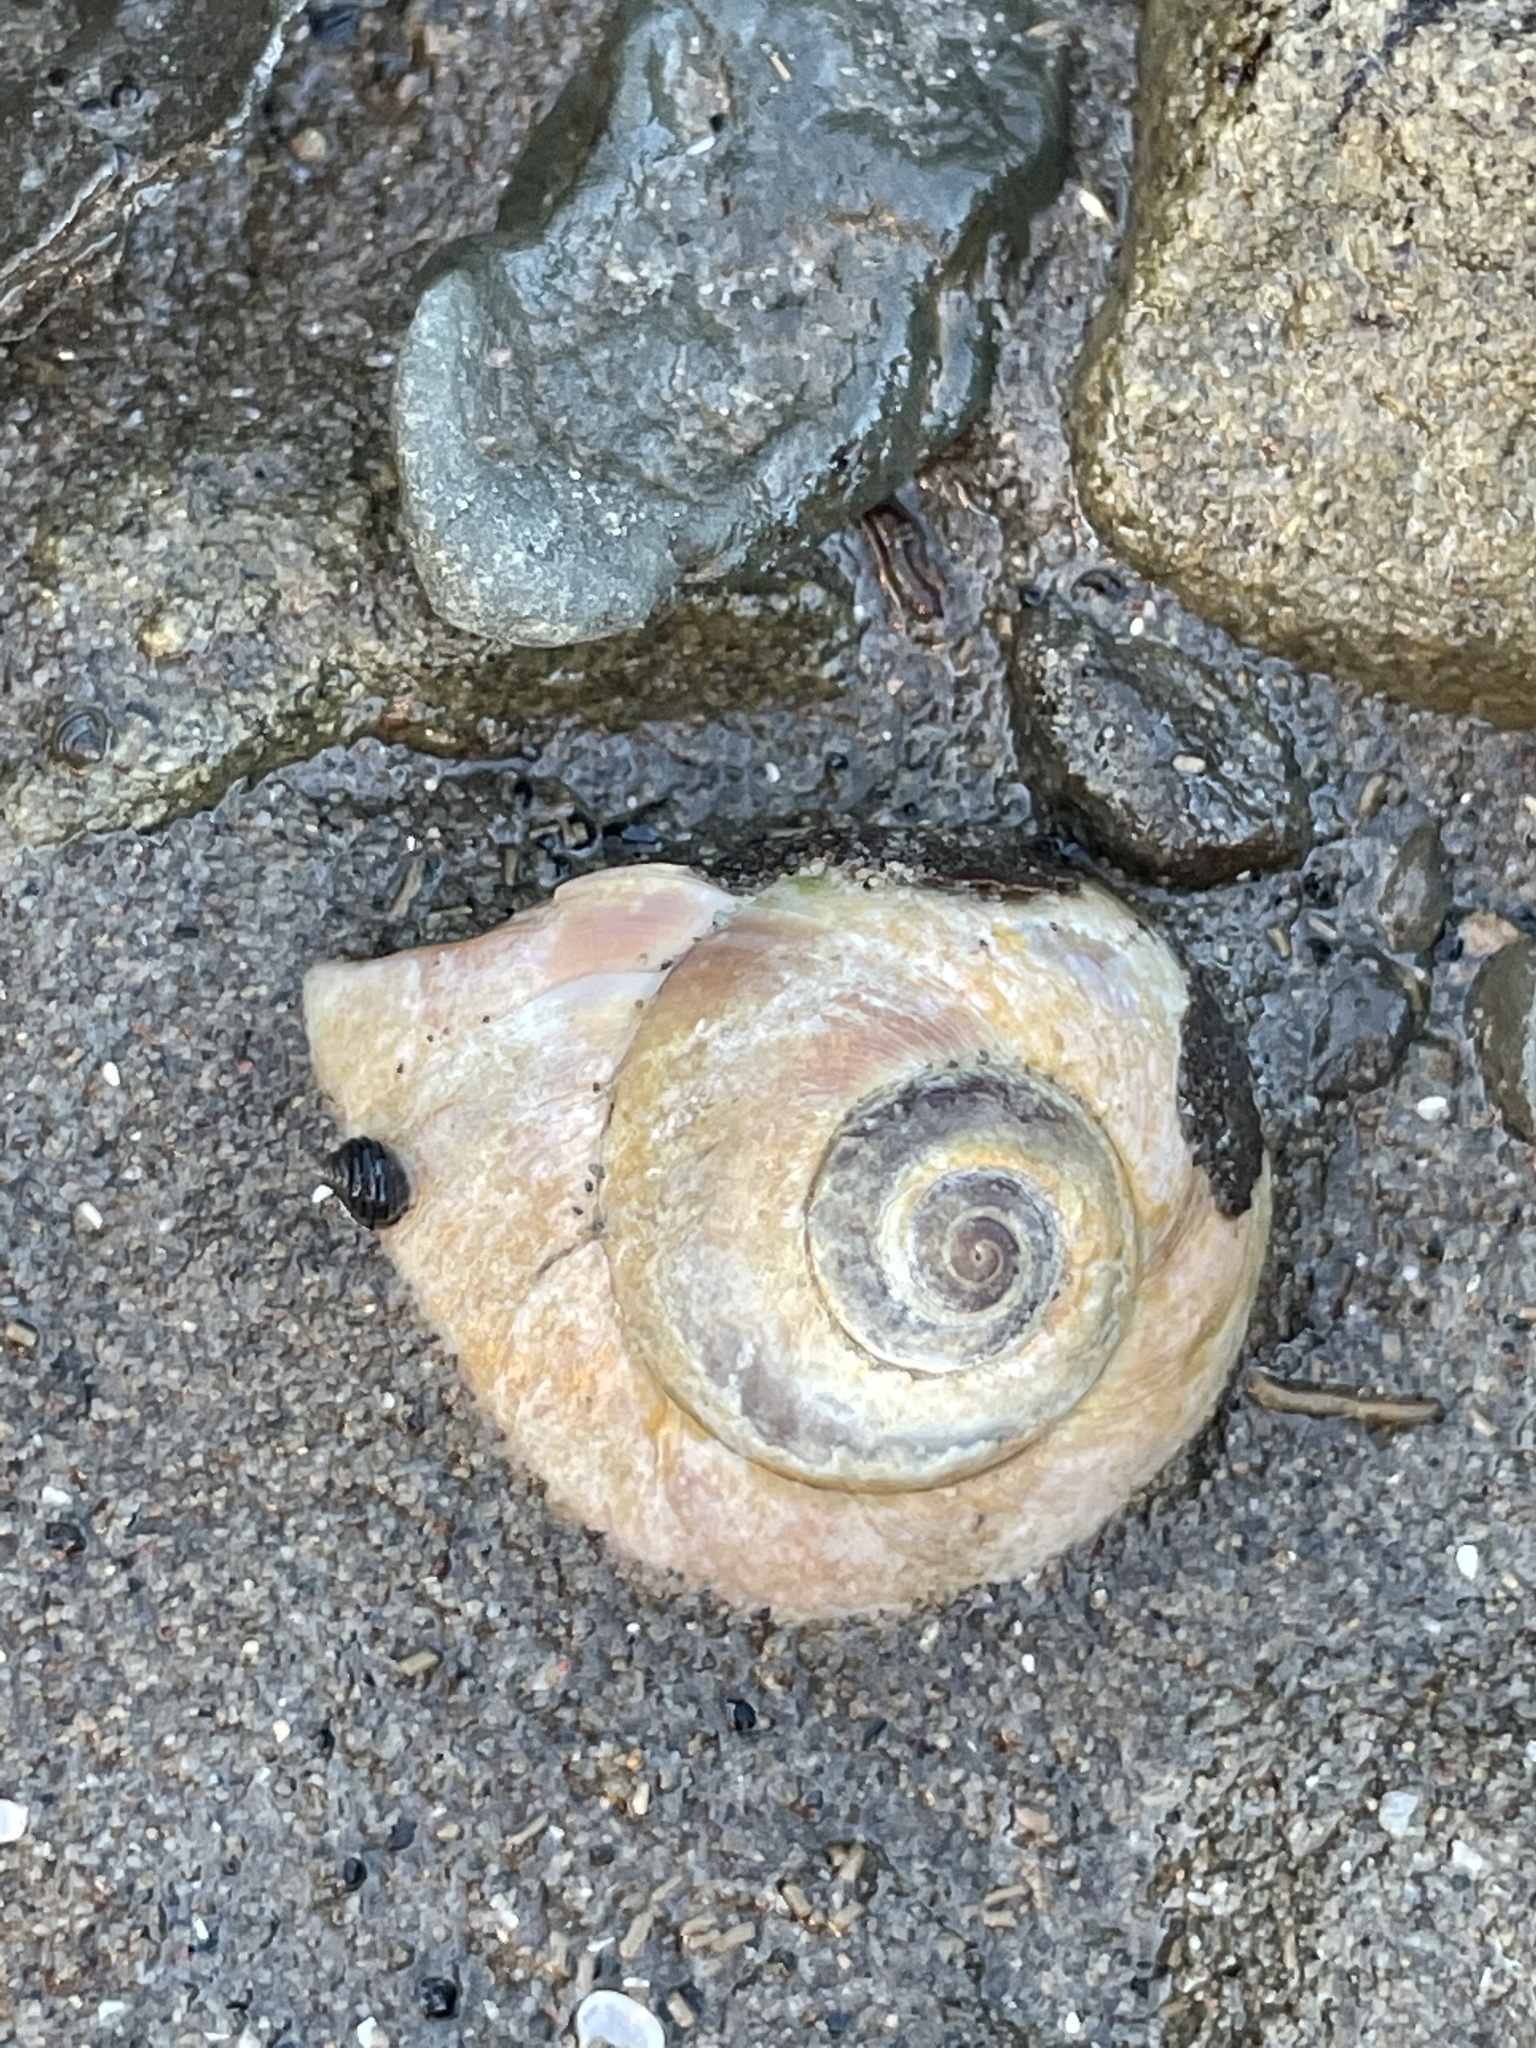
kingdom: Animalia
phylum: Mollusca
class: Gastropoda
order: Littorinimorpha
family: Naticidae
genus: Euspira
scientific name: Euspira heros
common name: Common northern moonsnail
